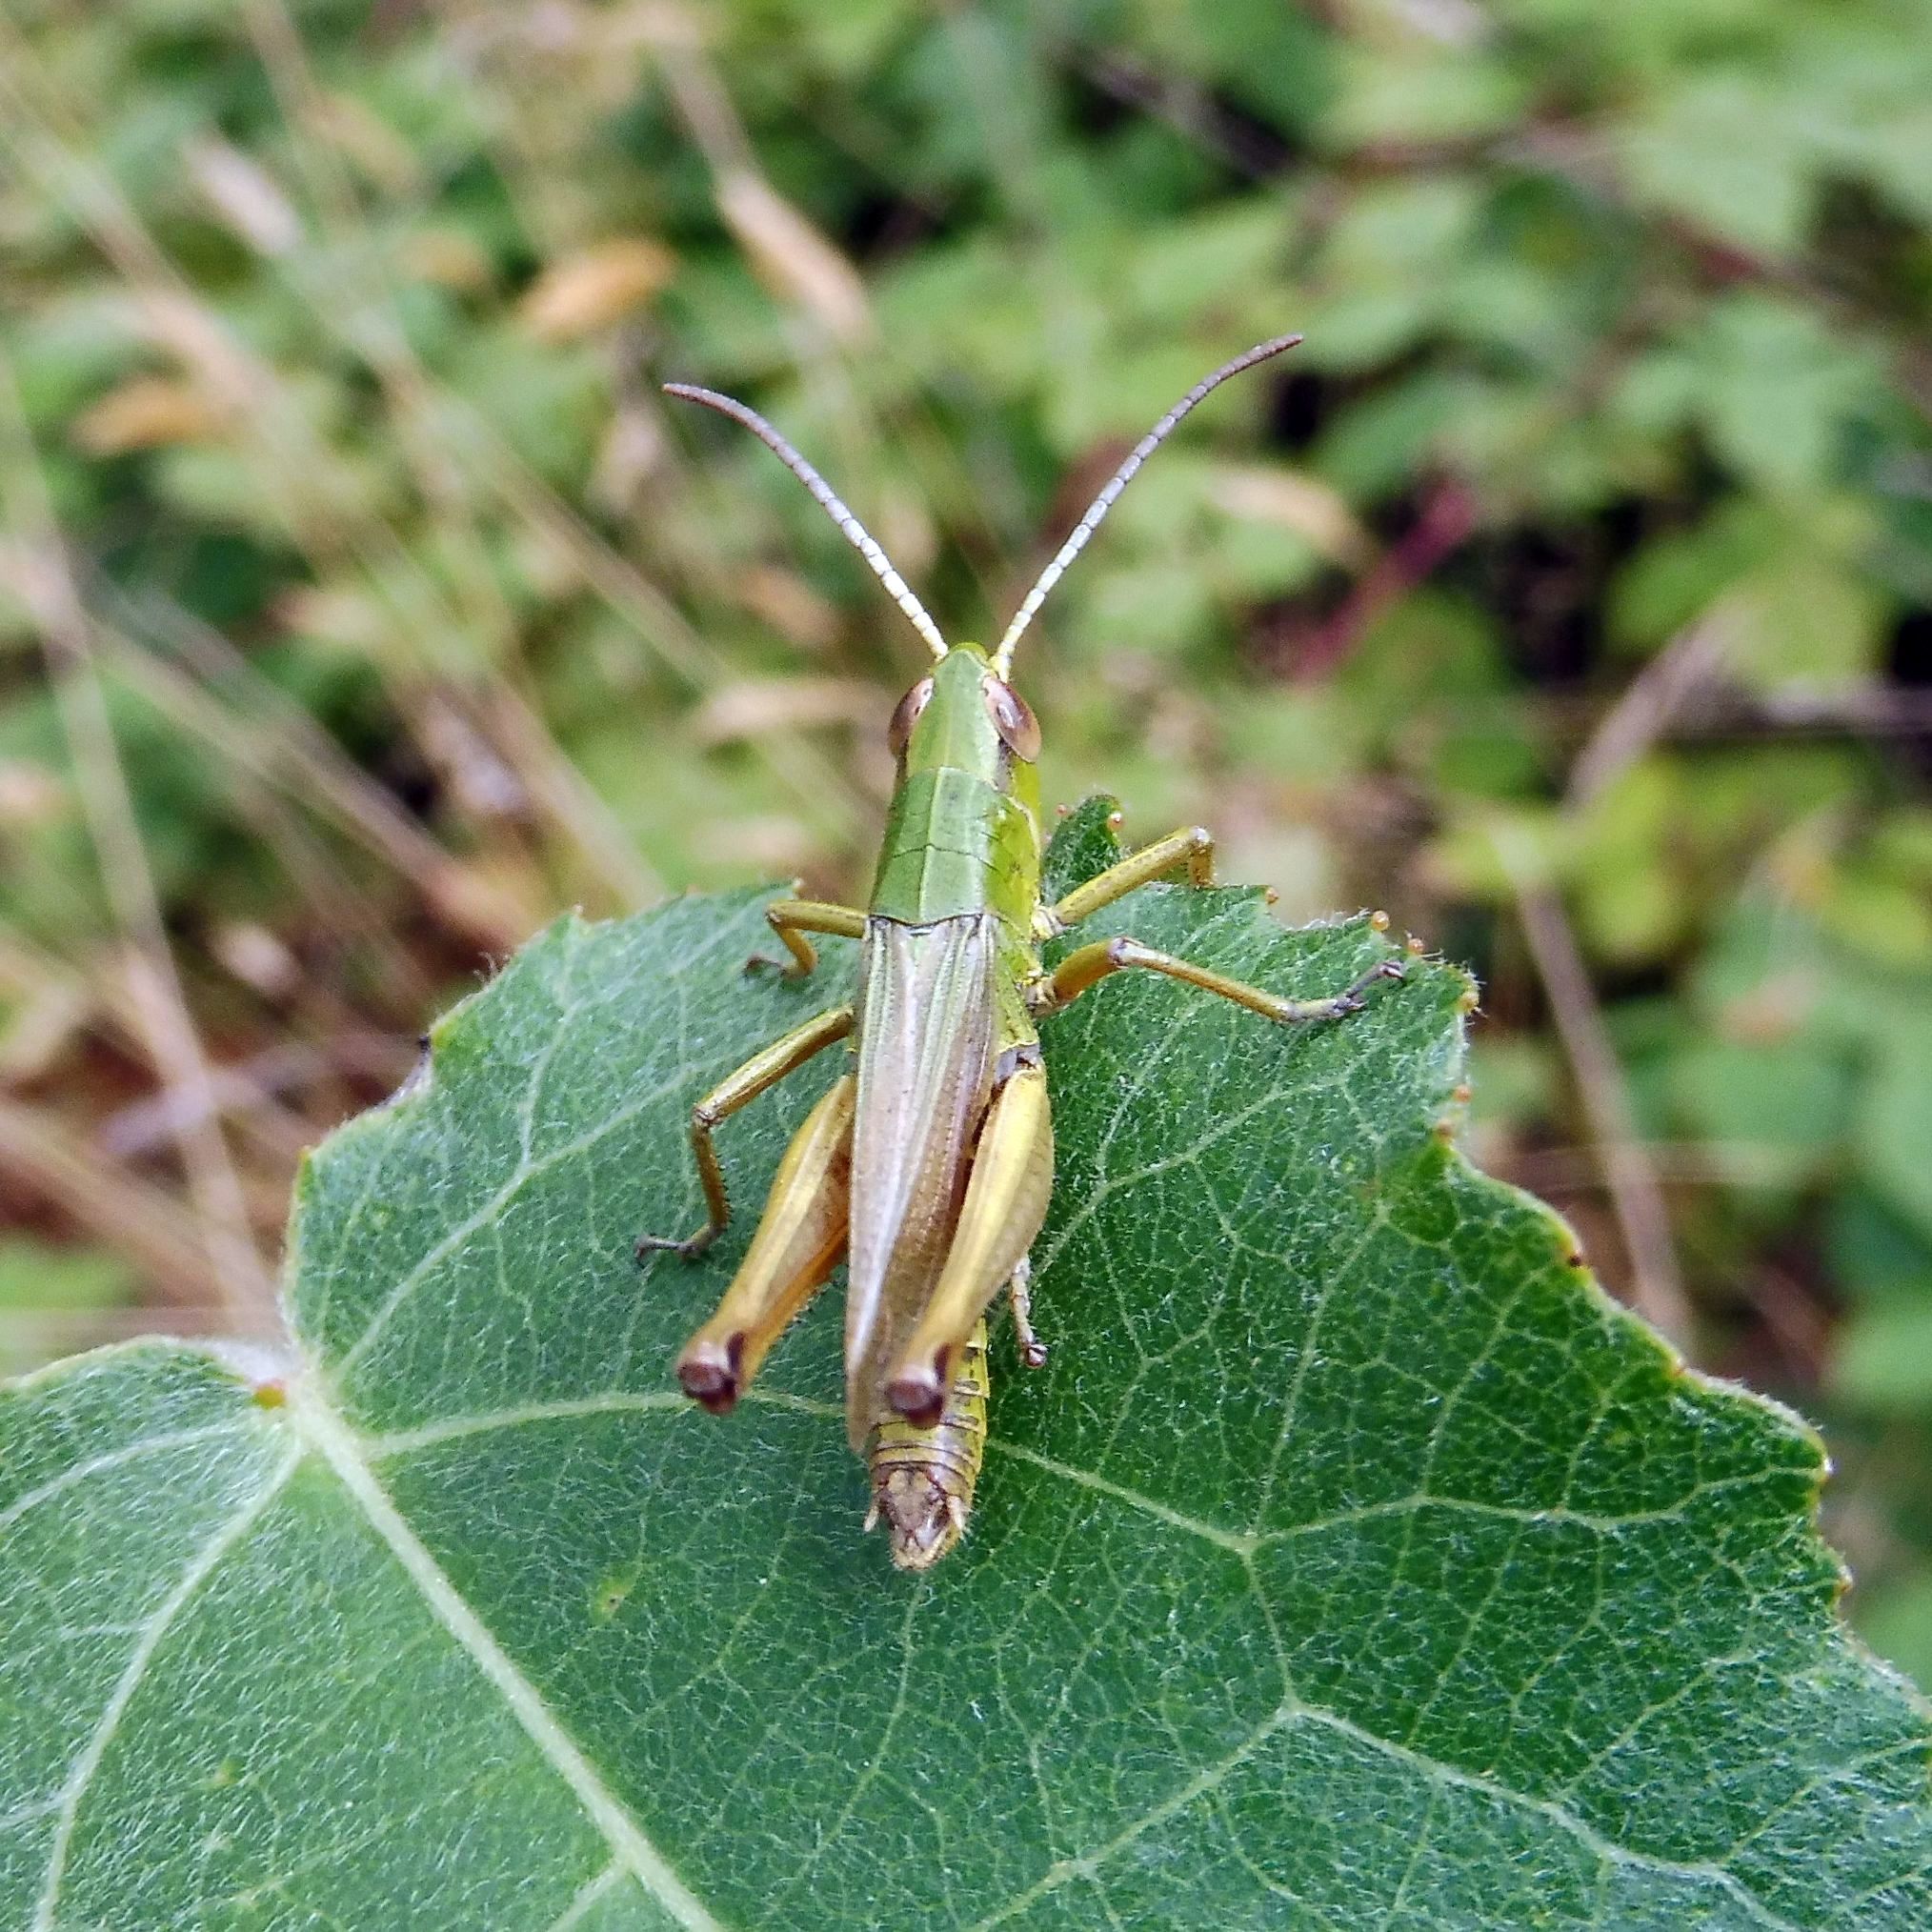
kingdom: Animalia
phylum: Arthropoda
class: Insecta
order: Orthoptera
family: Acrididae
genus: Pseudochorthippus
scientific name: Pseudochorthippus parallelus
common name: Meadow grasshopper
